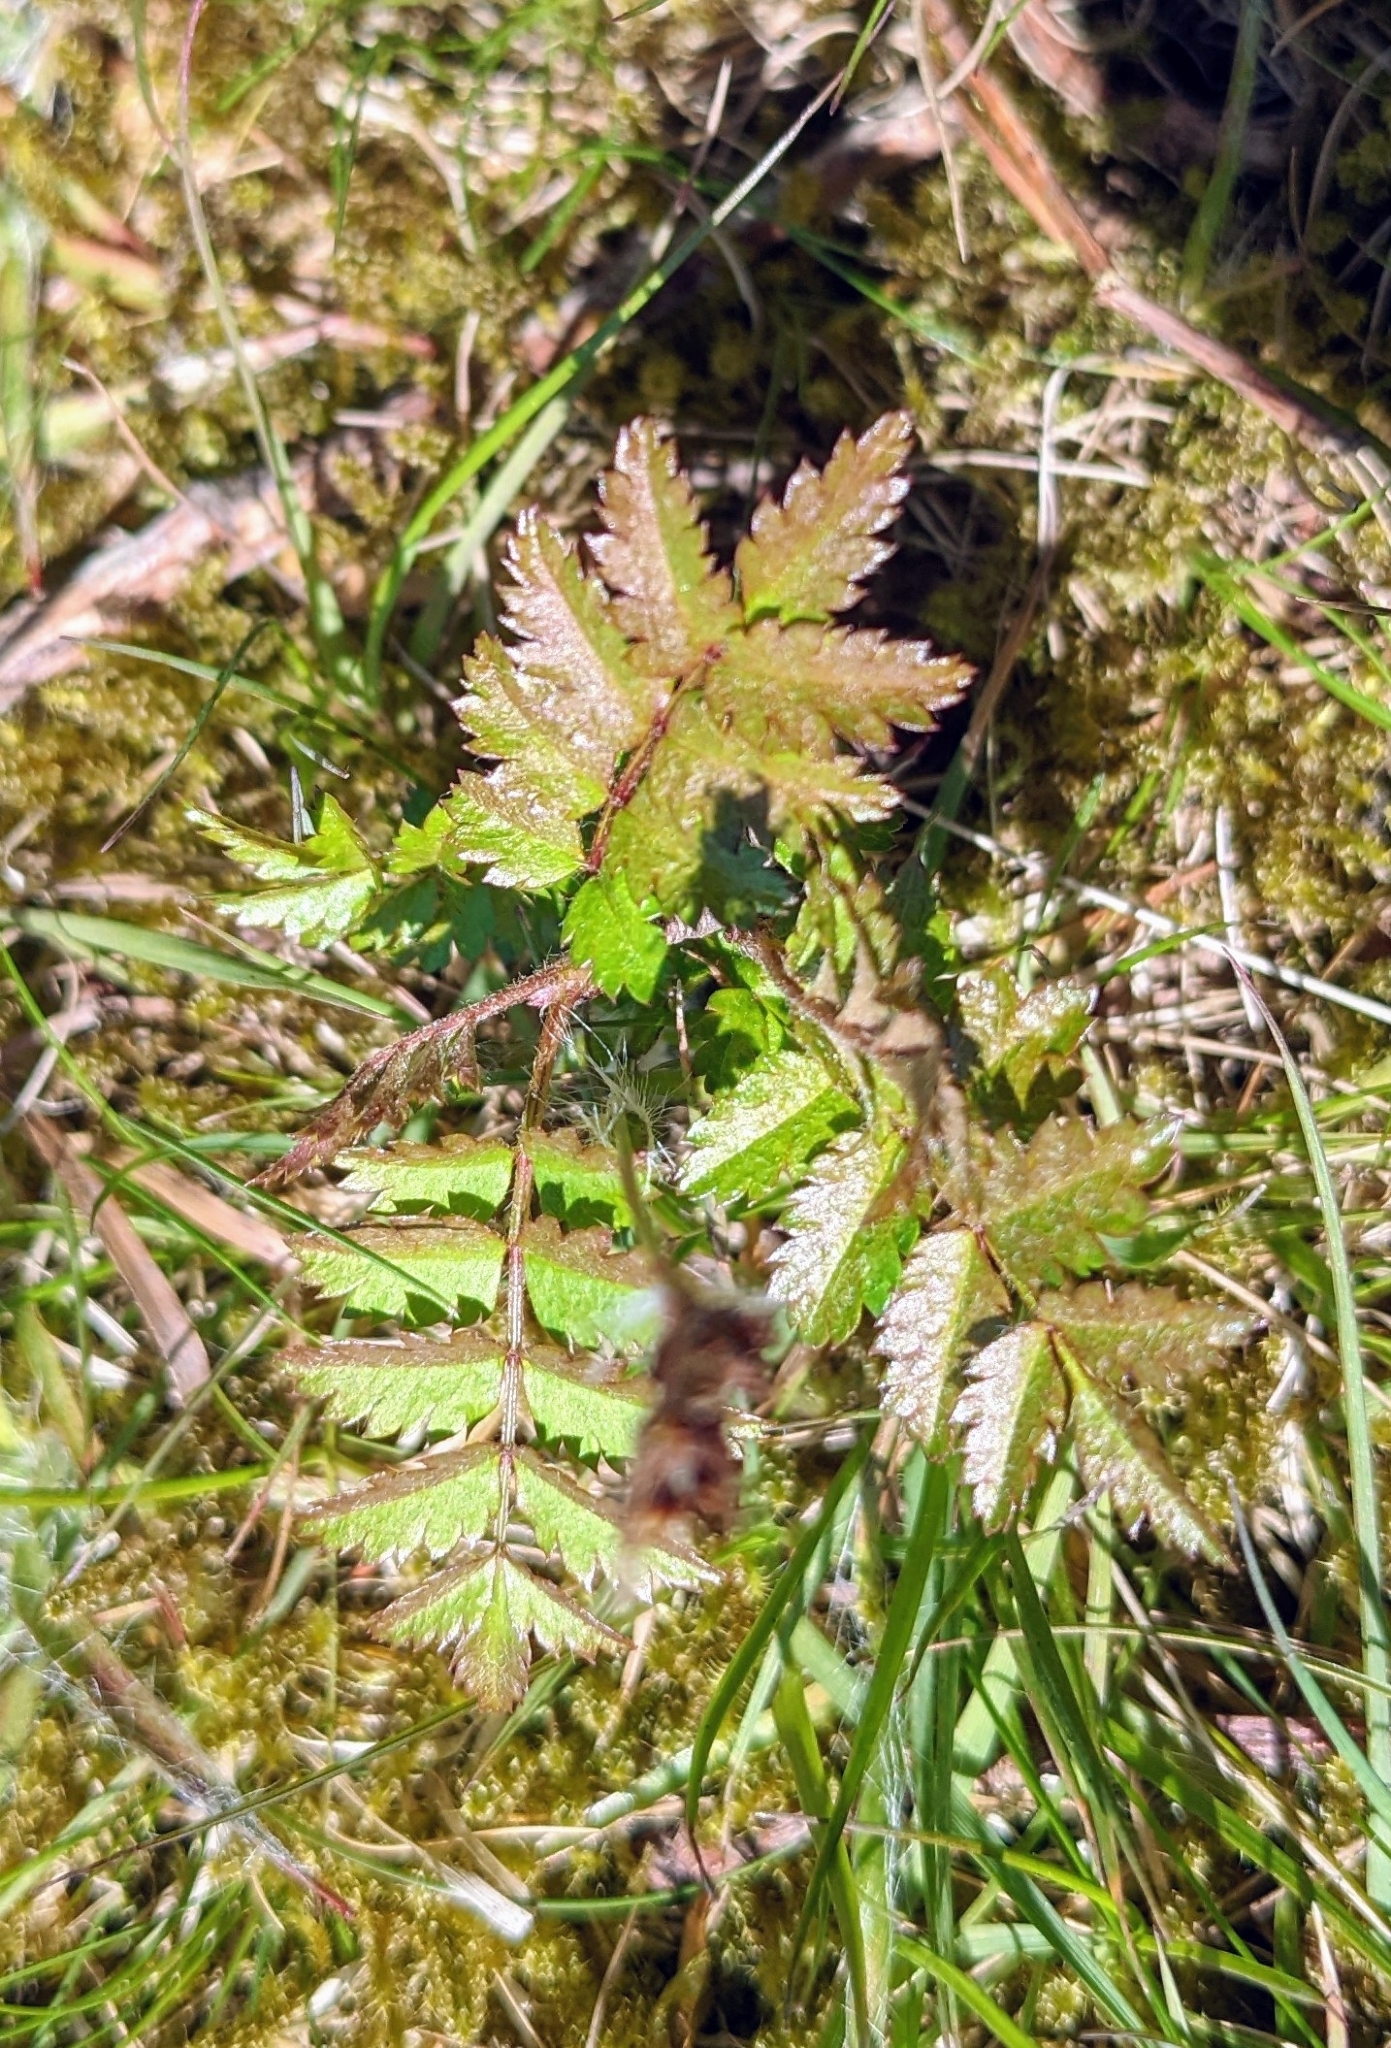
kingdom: Plantae
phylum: Tracheophyta
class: Magnoliopsida
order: Rosales
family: Rosaceae
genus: Sorbus
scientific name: Sorbus aucuparia
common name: Rowan
